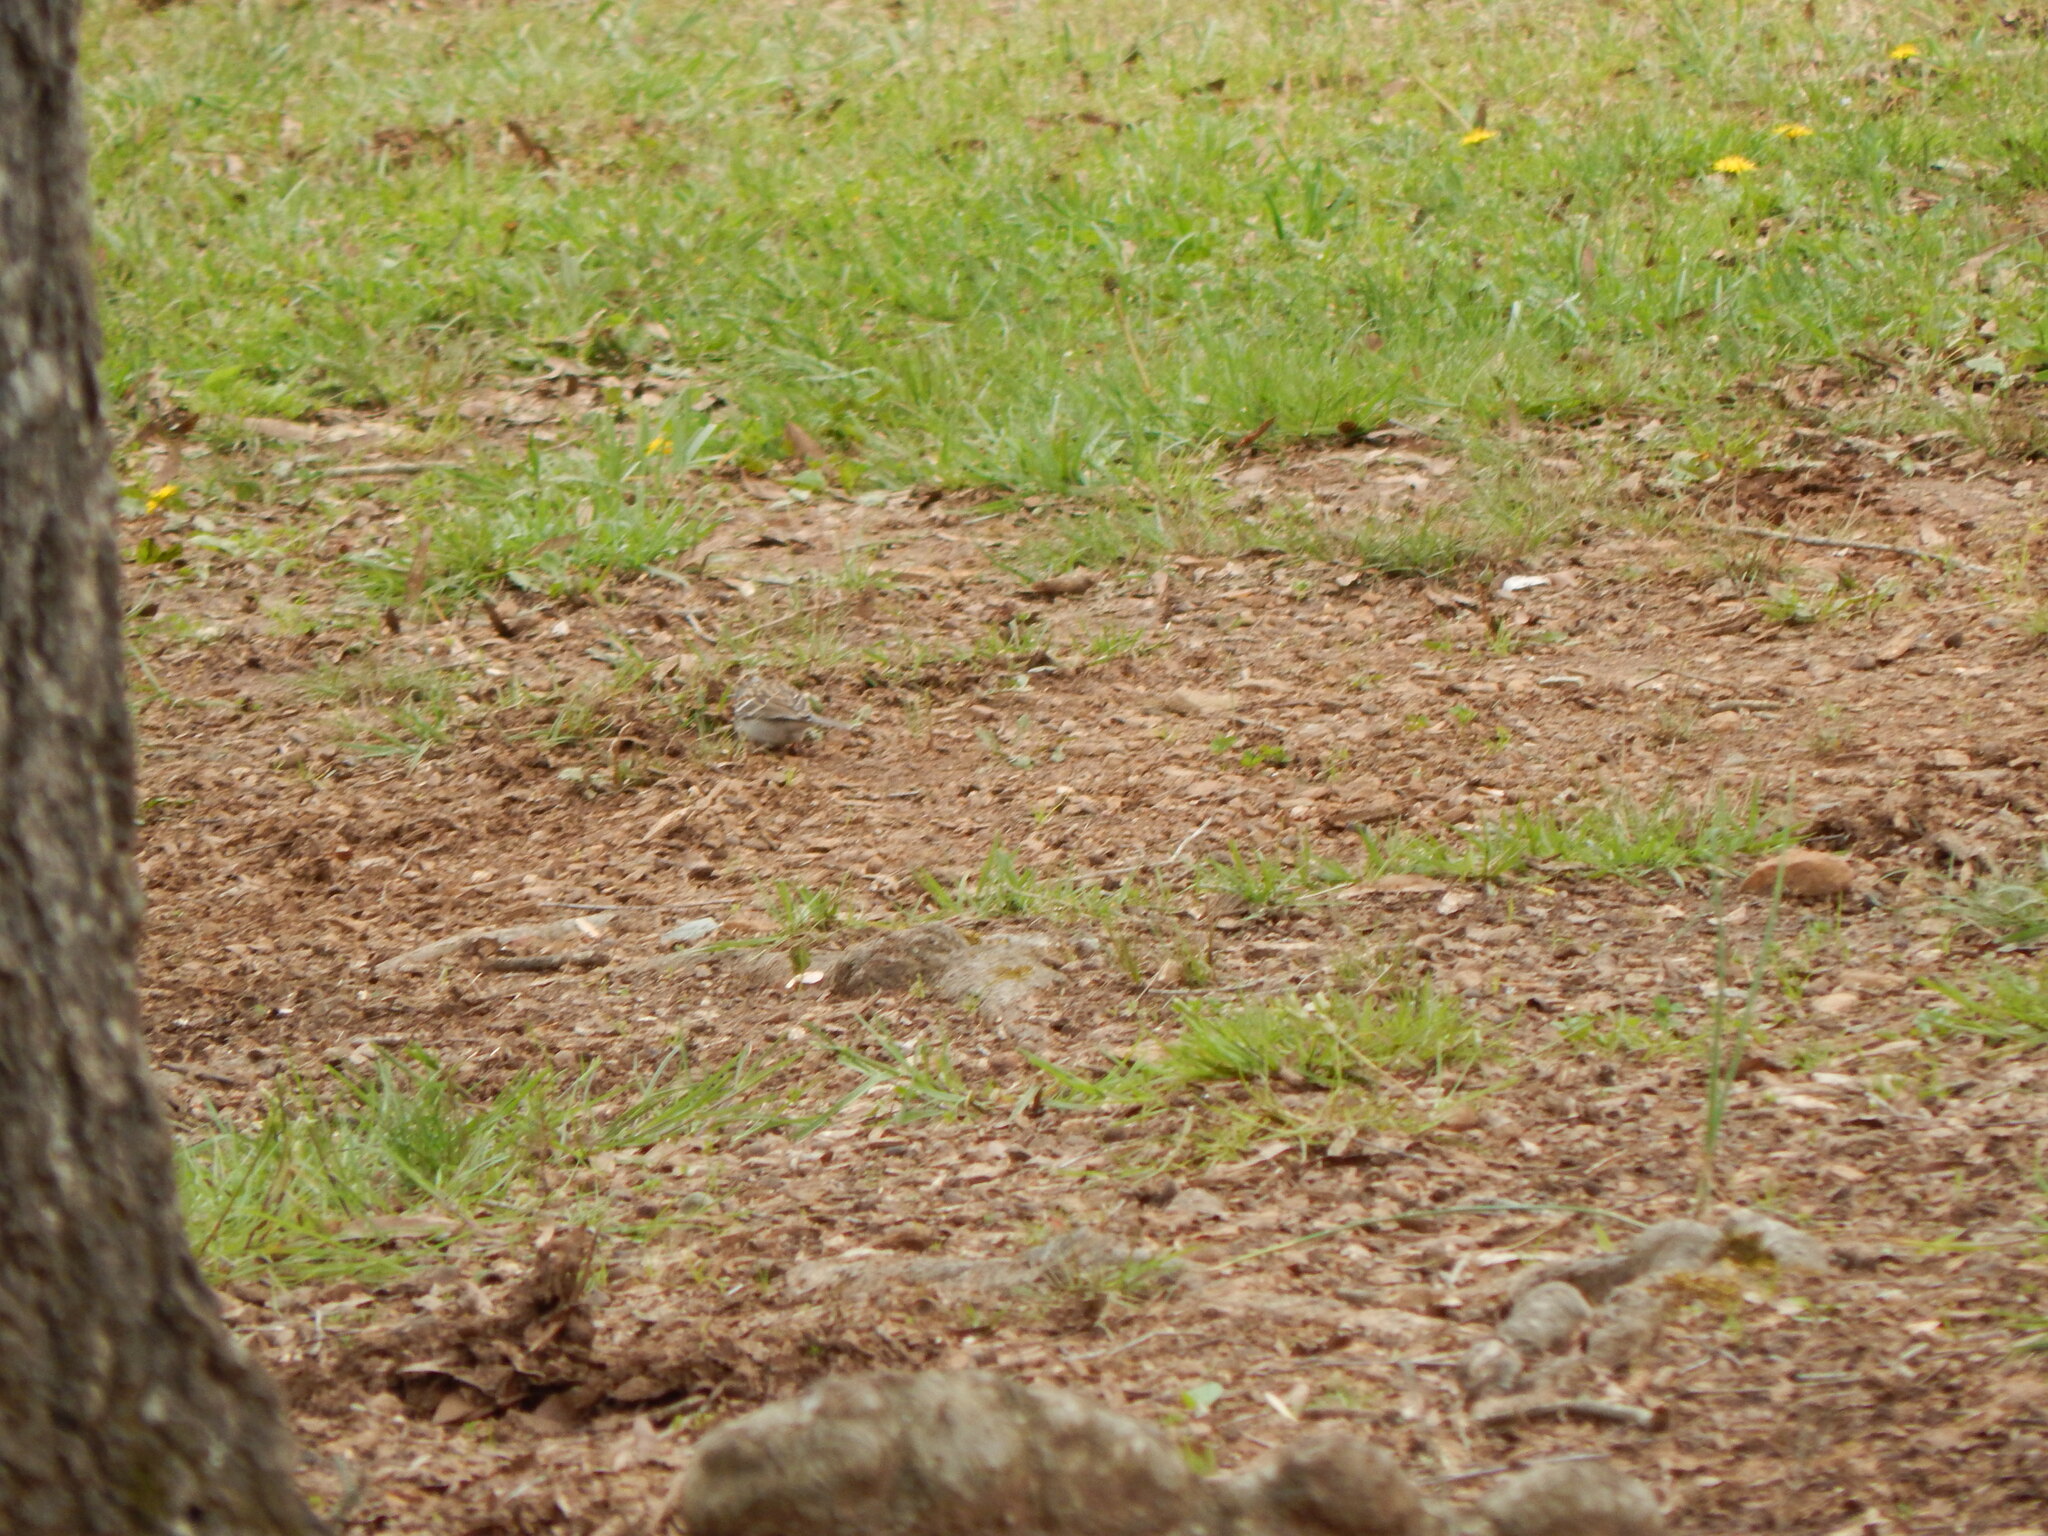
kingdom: Animalia
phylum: Chordata
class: Aves
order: Passeriformes
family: Passerellidae
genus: Spizella
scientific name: Spizella passerina
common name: Chipping sparrow
